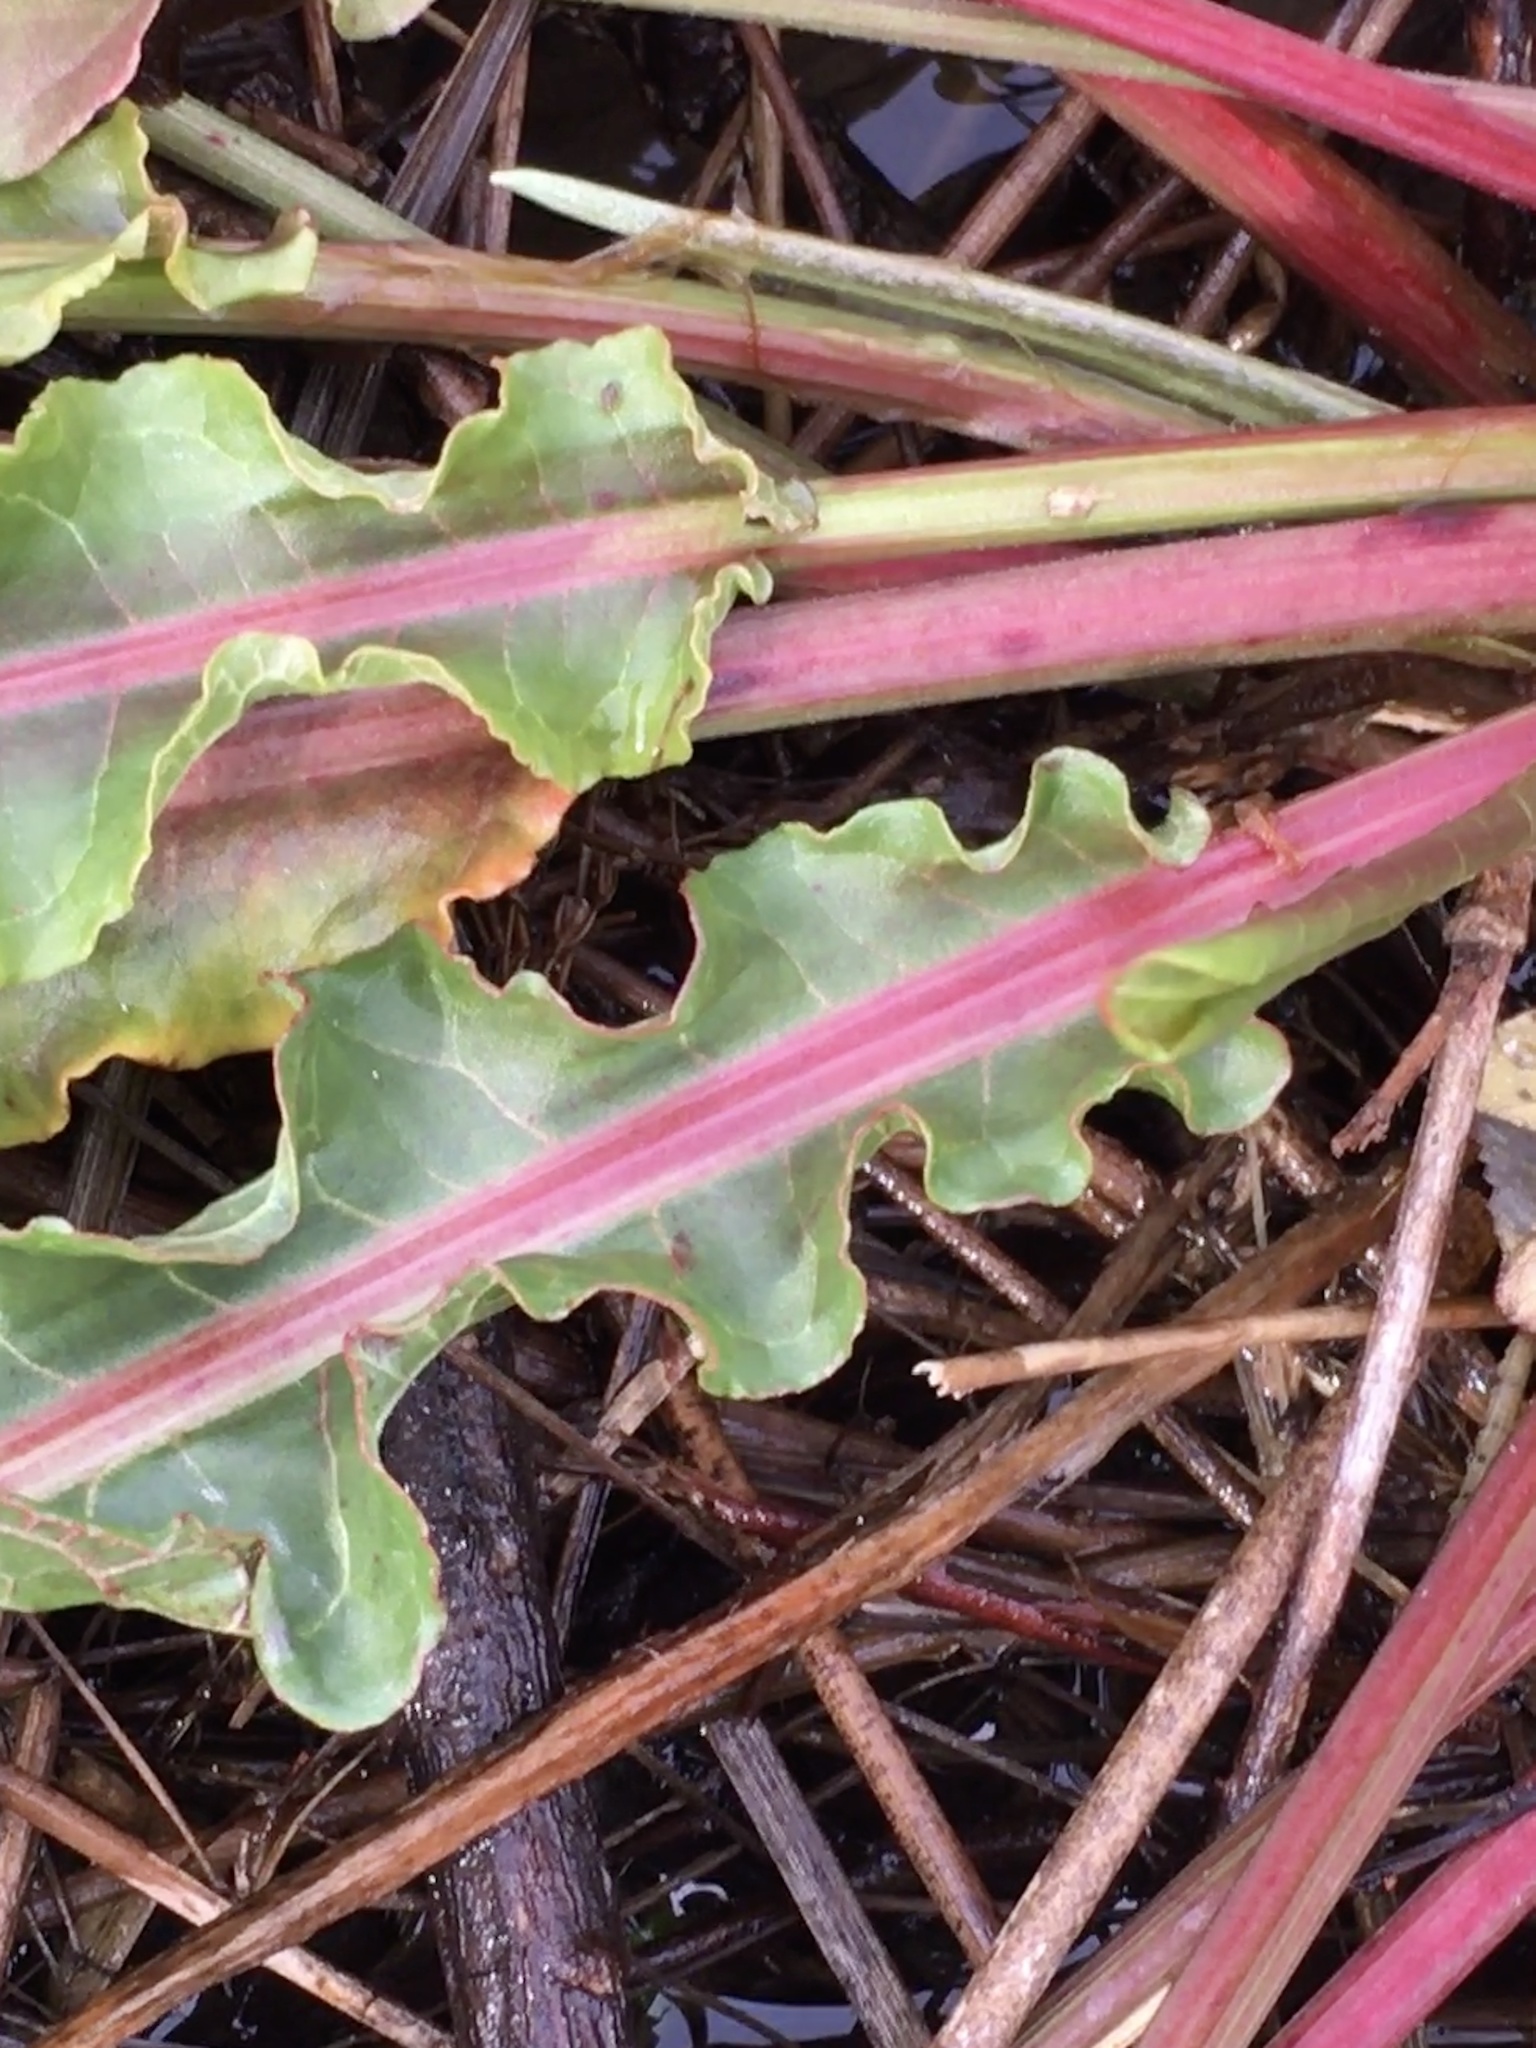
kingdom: Plantae
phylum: Tracheophyta
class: Magnoliopsida
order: Caryophyllales
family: Polygonaceae
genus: Rumex
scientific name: Rumex crispus
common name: Curled dock
